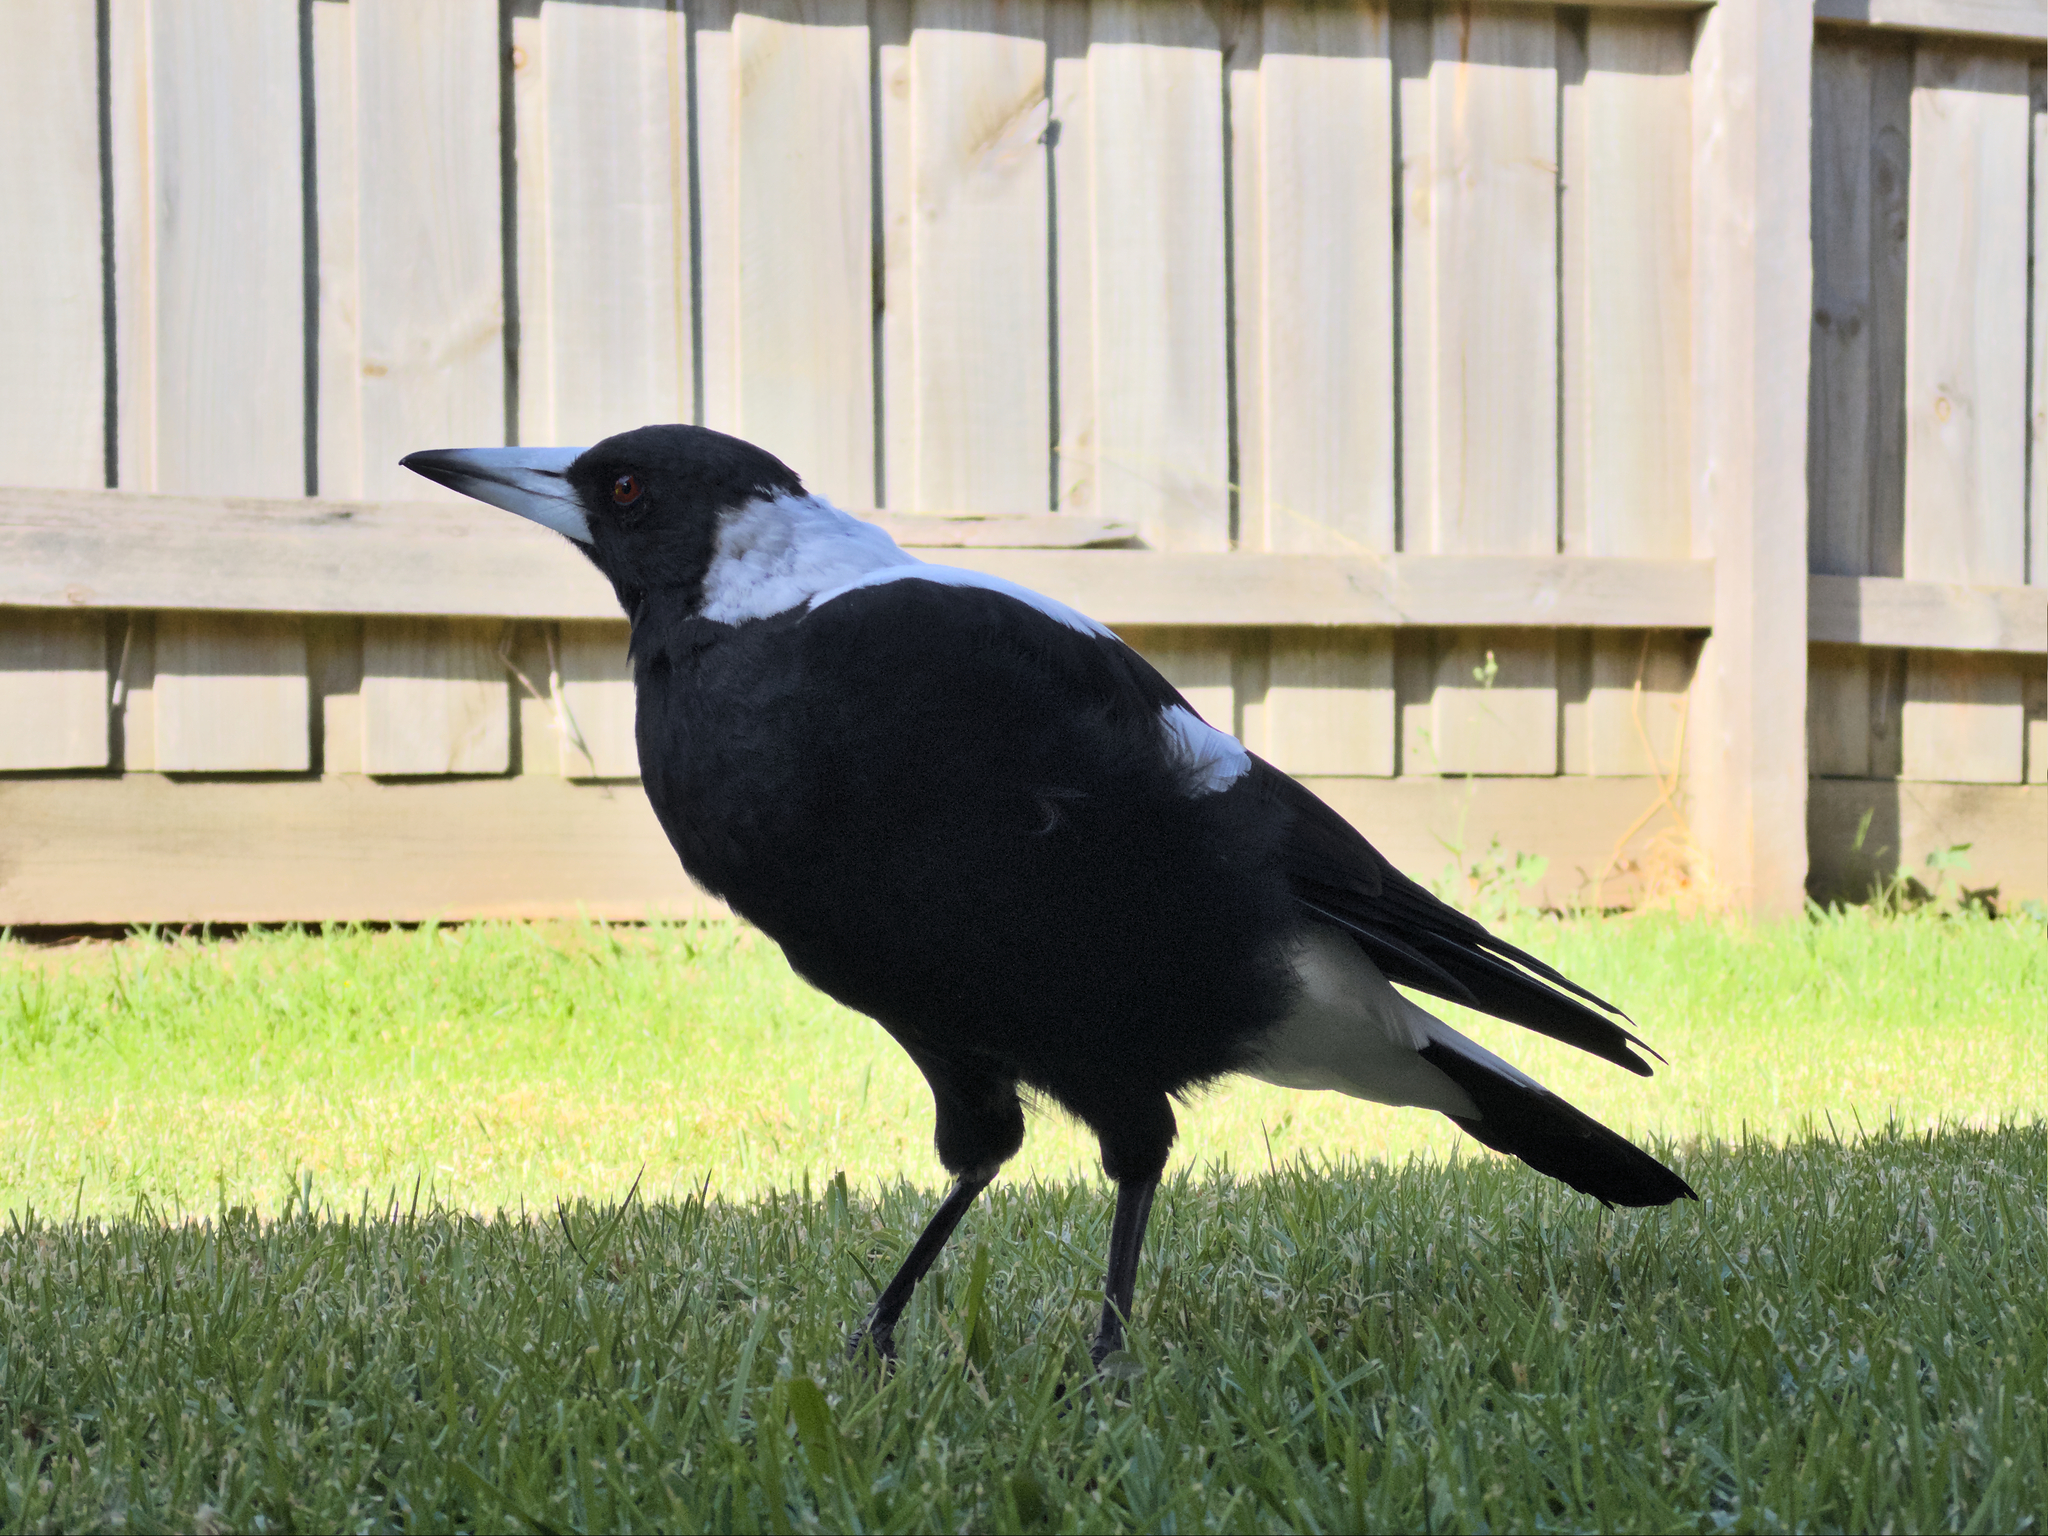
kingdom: Animalia
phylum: Chordata
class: Aves
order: Passeriformes
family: Cracticidae
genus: Gymnorhina
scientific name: Gymnorhina tibicen
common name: Australian magpie
